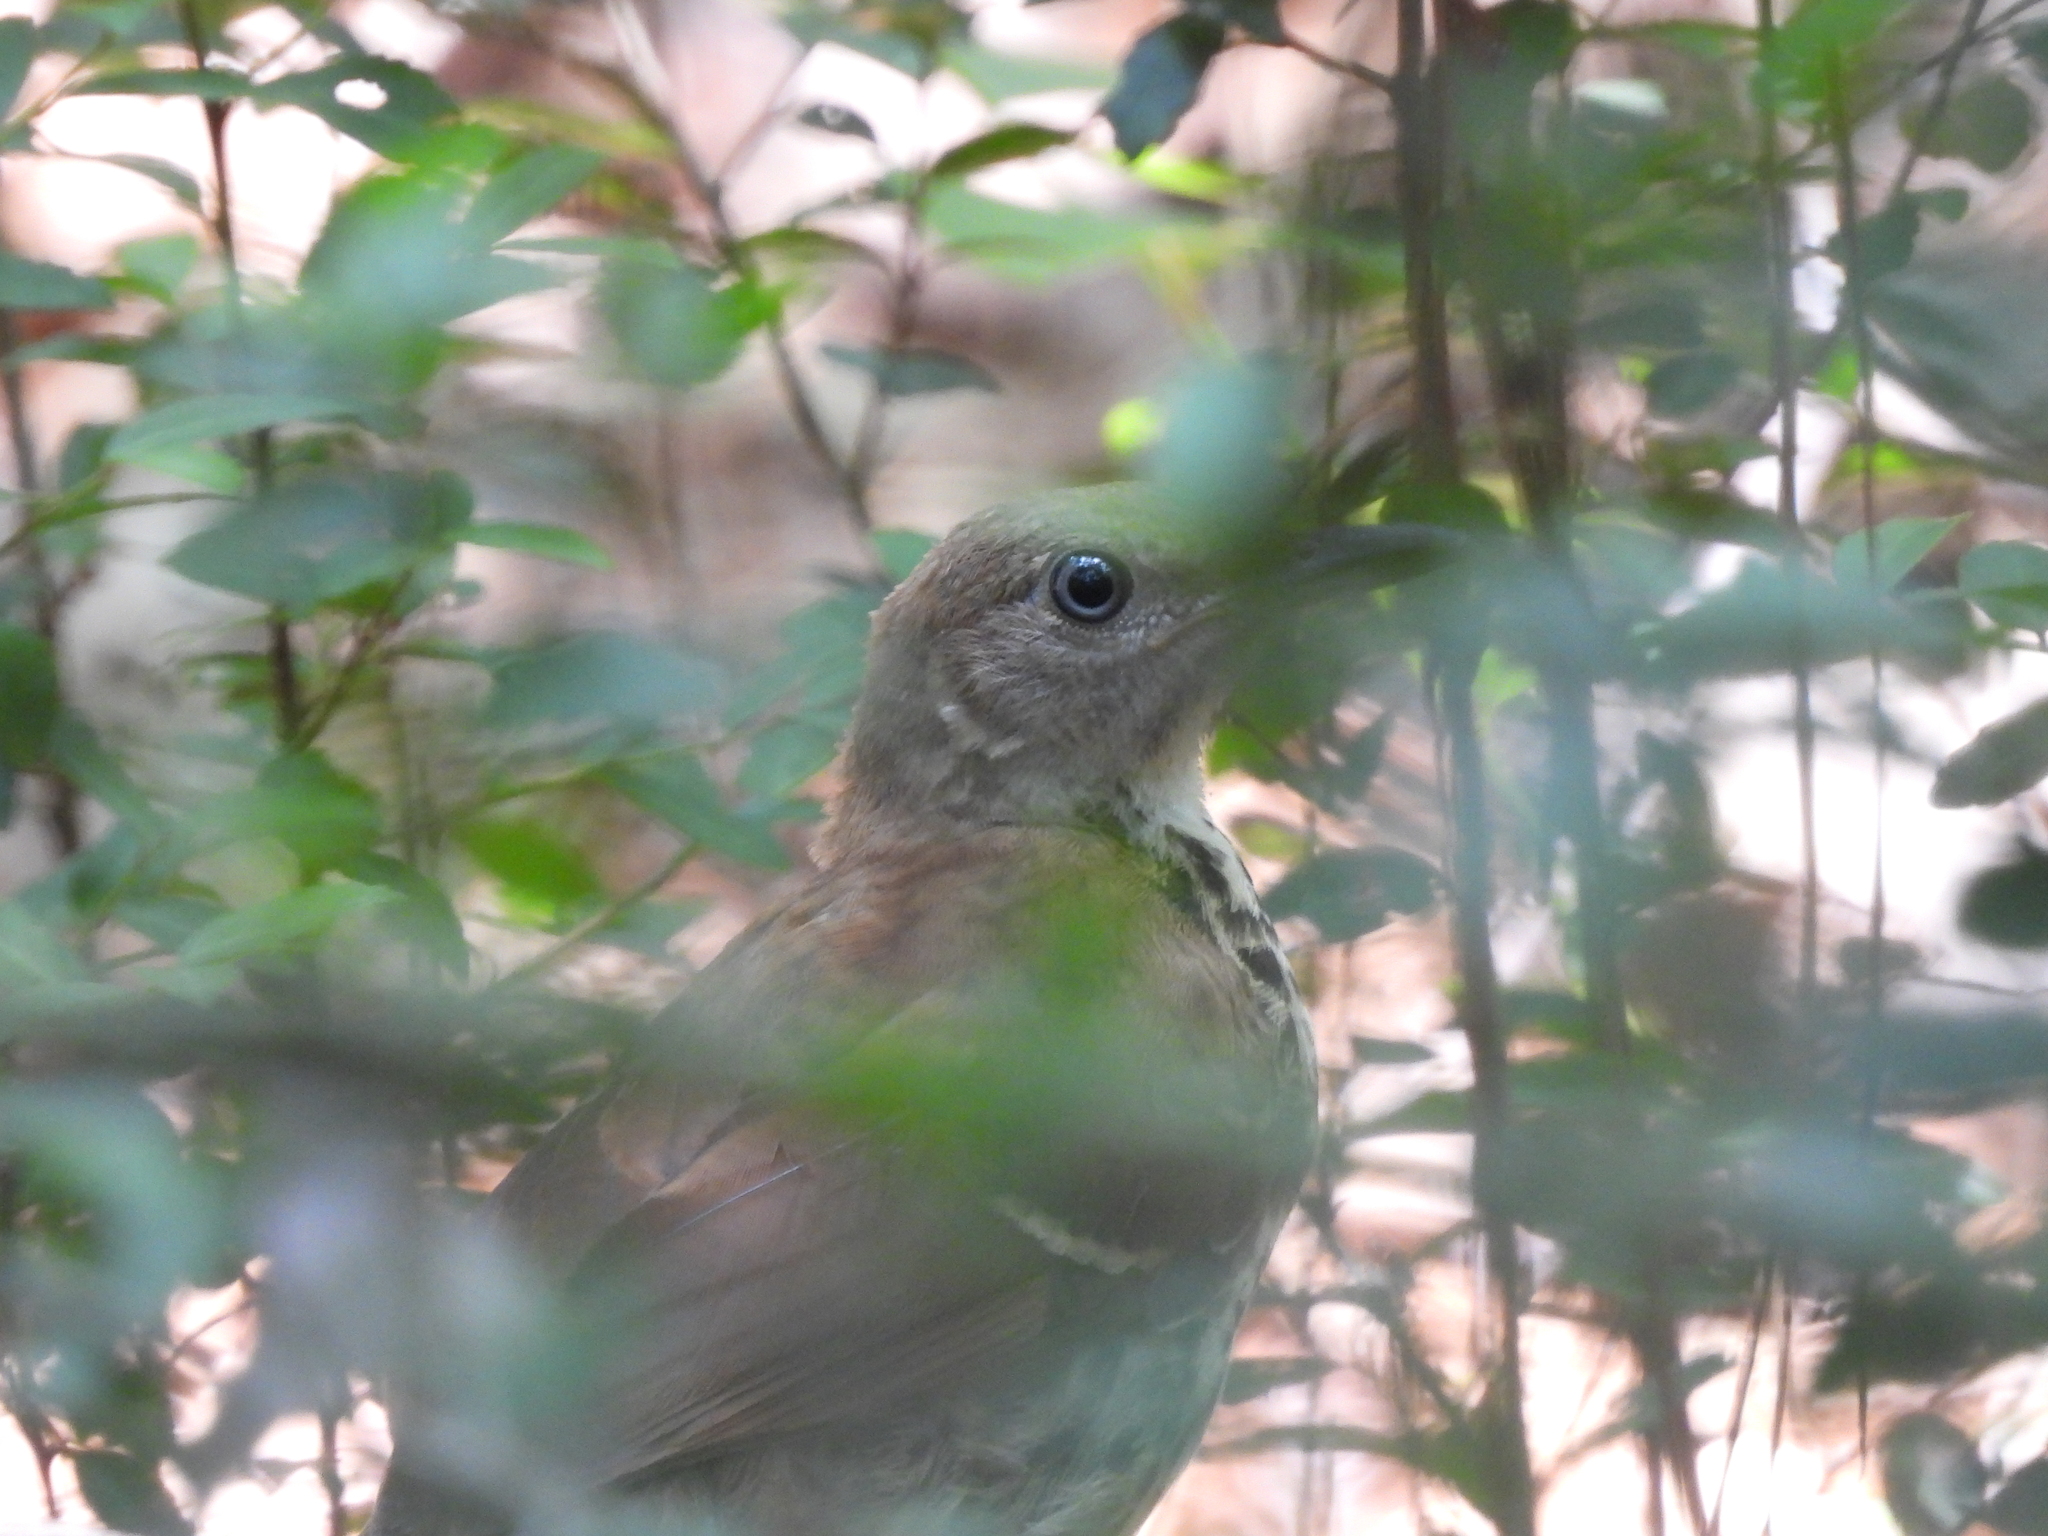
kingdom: Animalia
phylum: Chordata
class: Aves
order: Passeriformes
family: Mimidae
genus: Toxostoma
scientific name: Toxostoma rufum
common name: Brown thrasher
